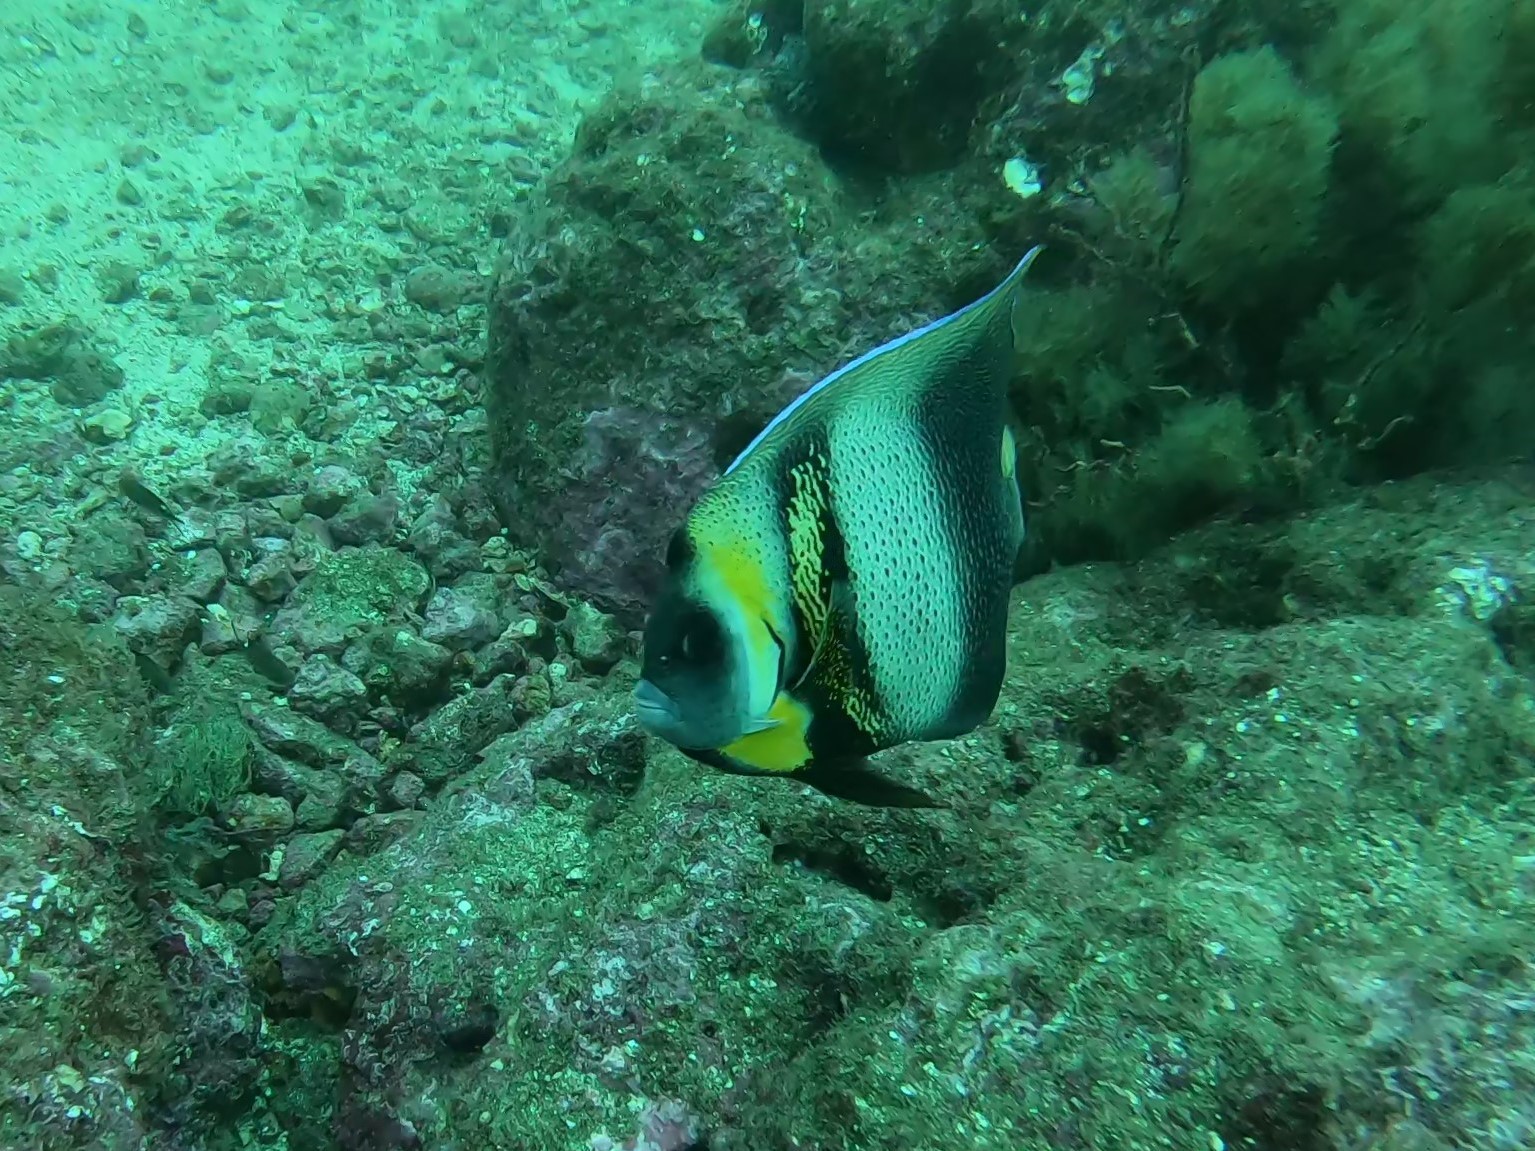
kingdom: Animalia
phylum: Chordata
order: Perciformes
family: Pomacanthidae
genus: Pomacanthus
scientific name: Pomacanthus zonipectus
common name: Cortez angelfish
